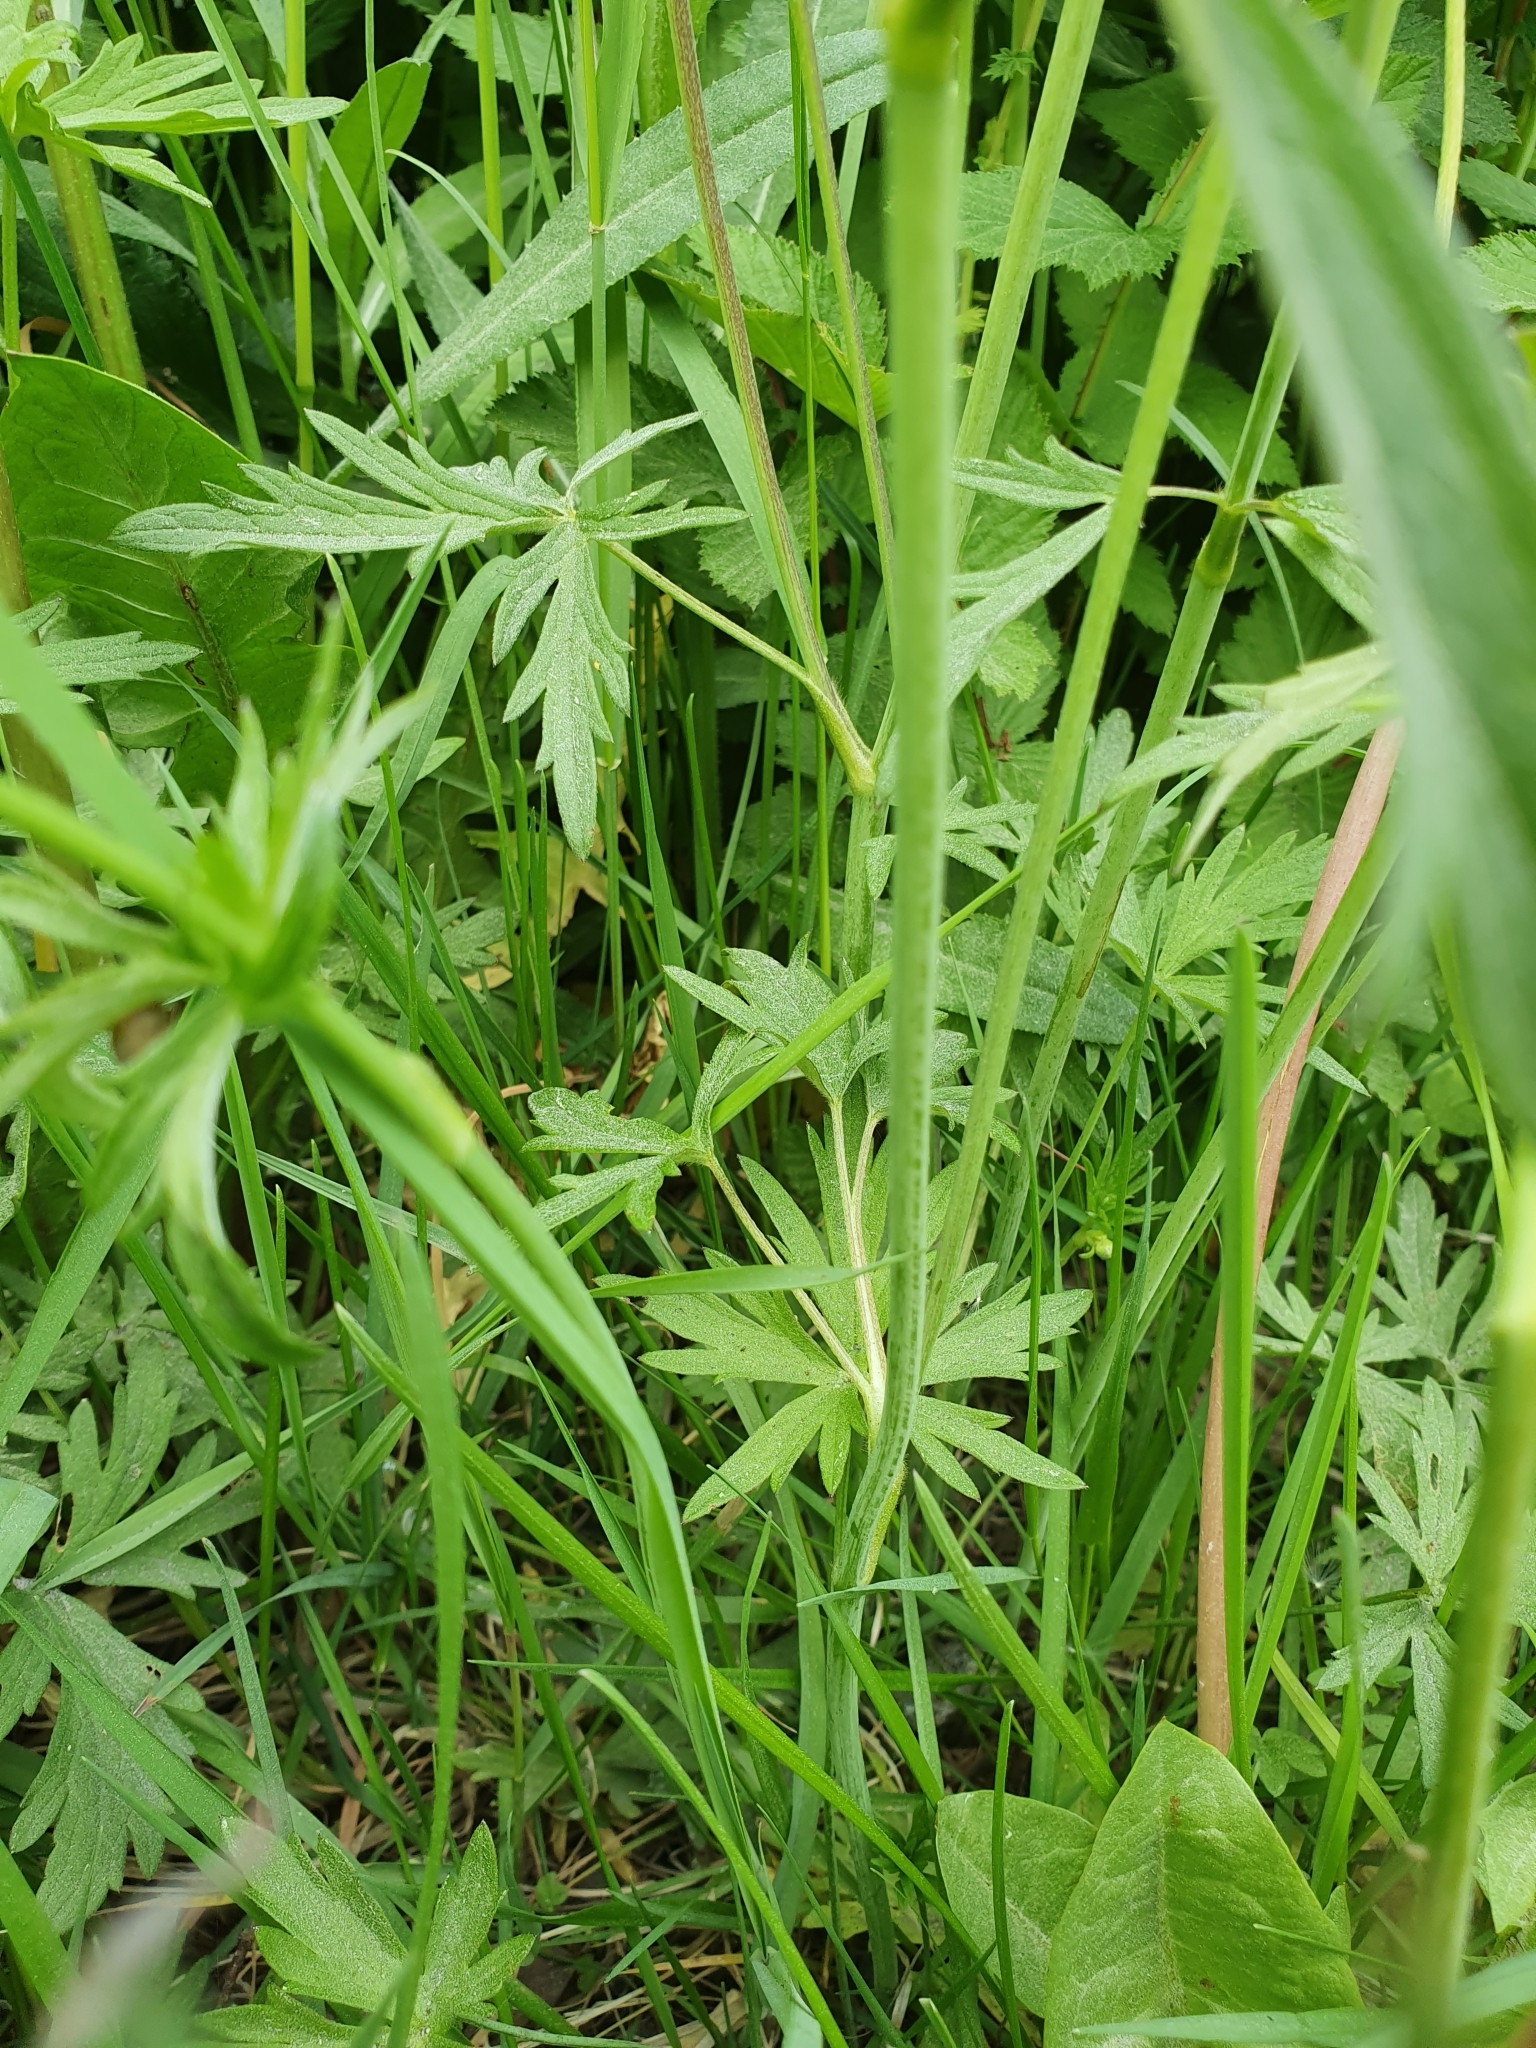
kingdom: Plantae
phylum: Tracheophyta
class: Magnoliopsida
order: Ranunculales
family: Ranunculaceae
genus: Ranunculus
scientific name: Ranunculus acris
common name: Meadow buttercup
